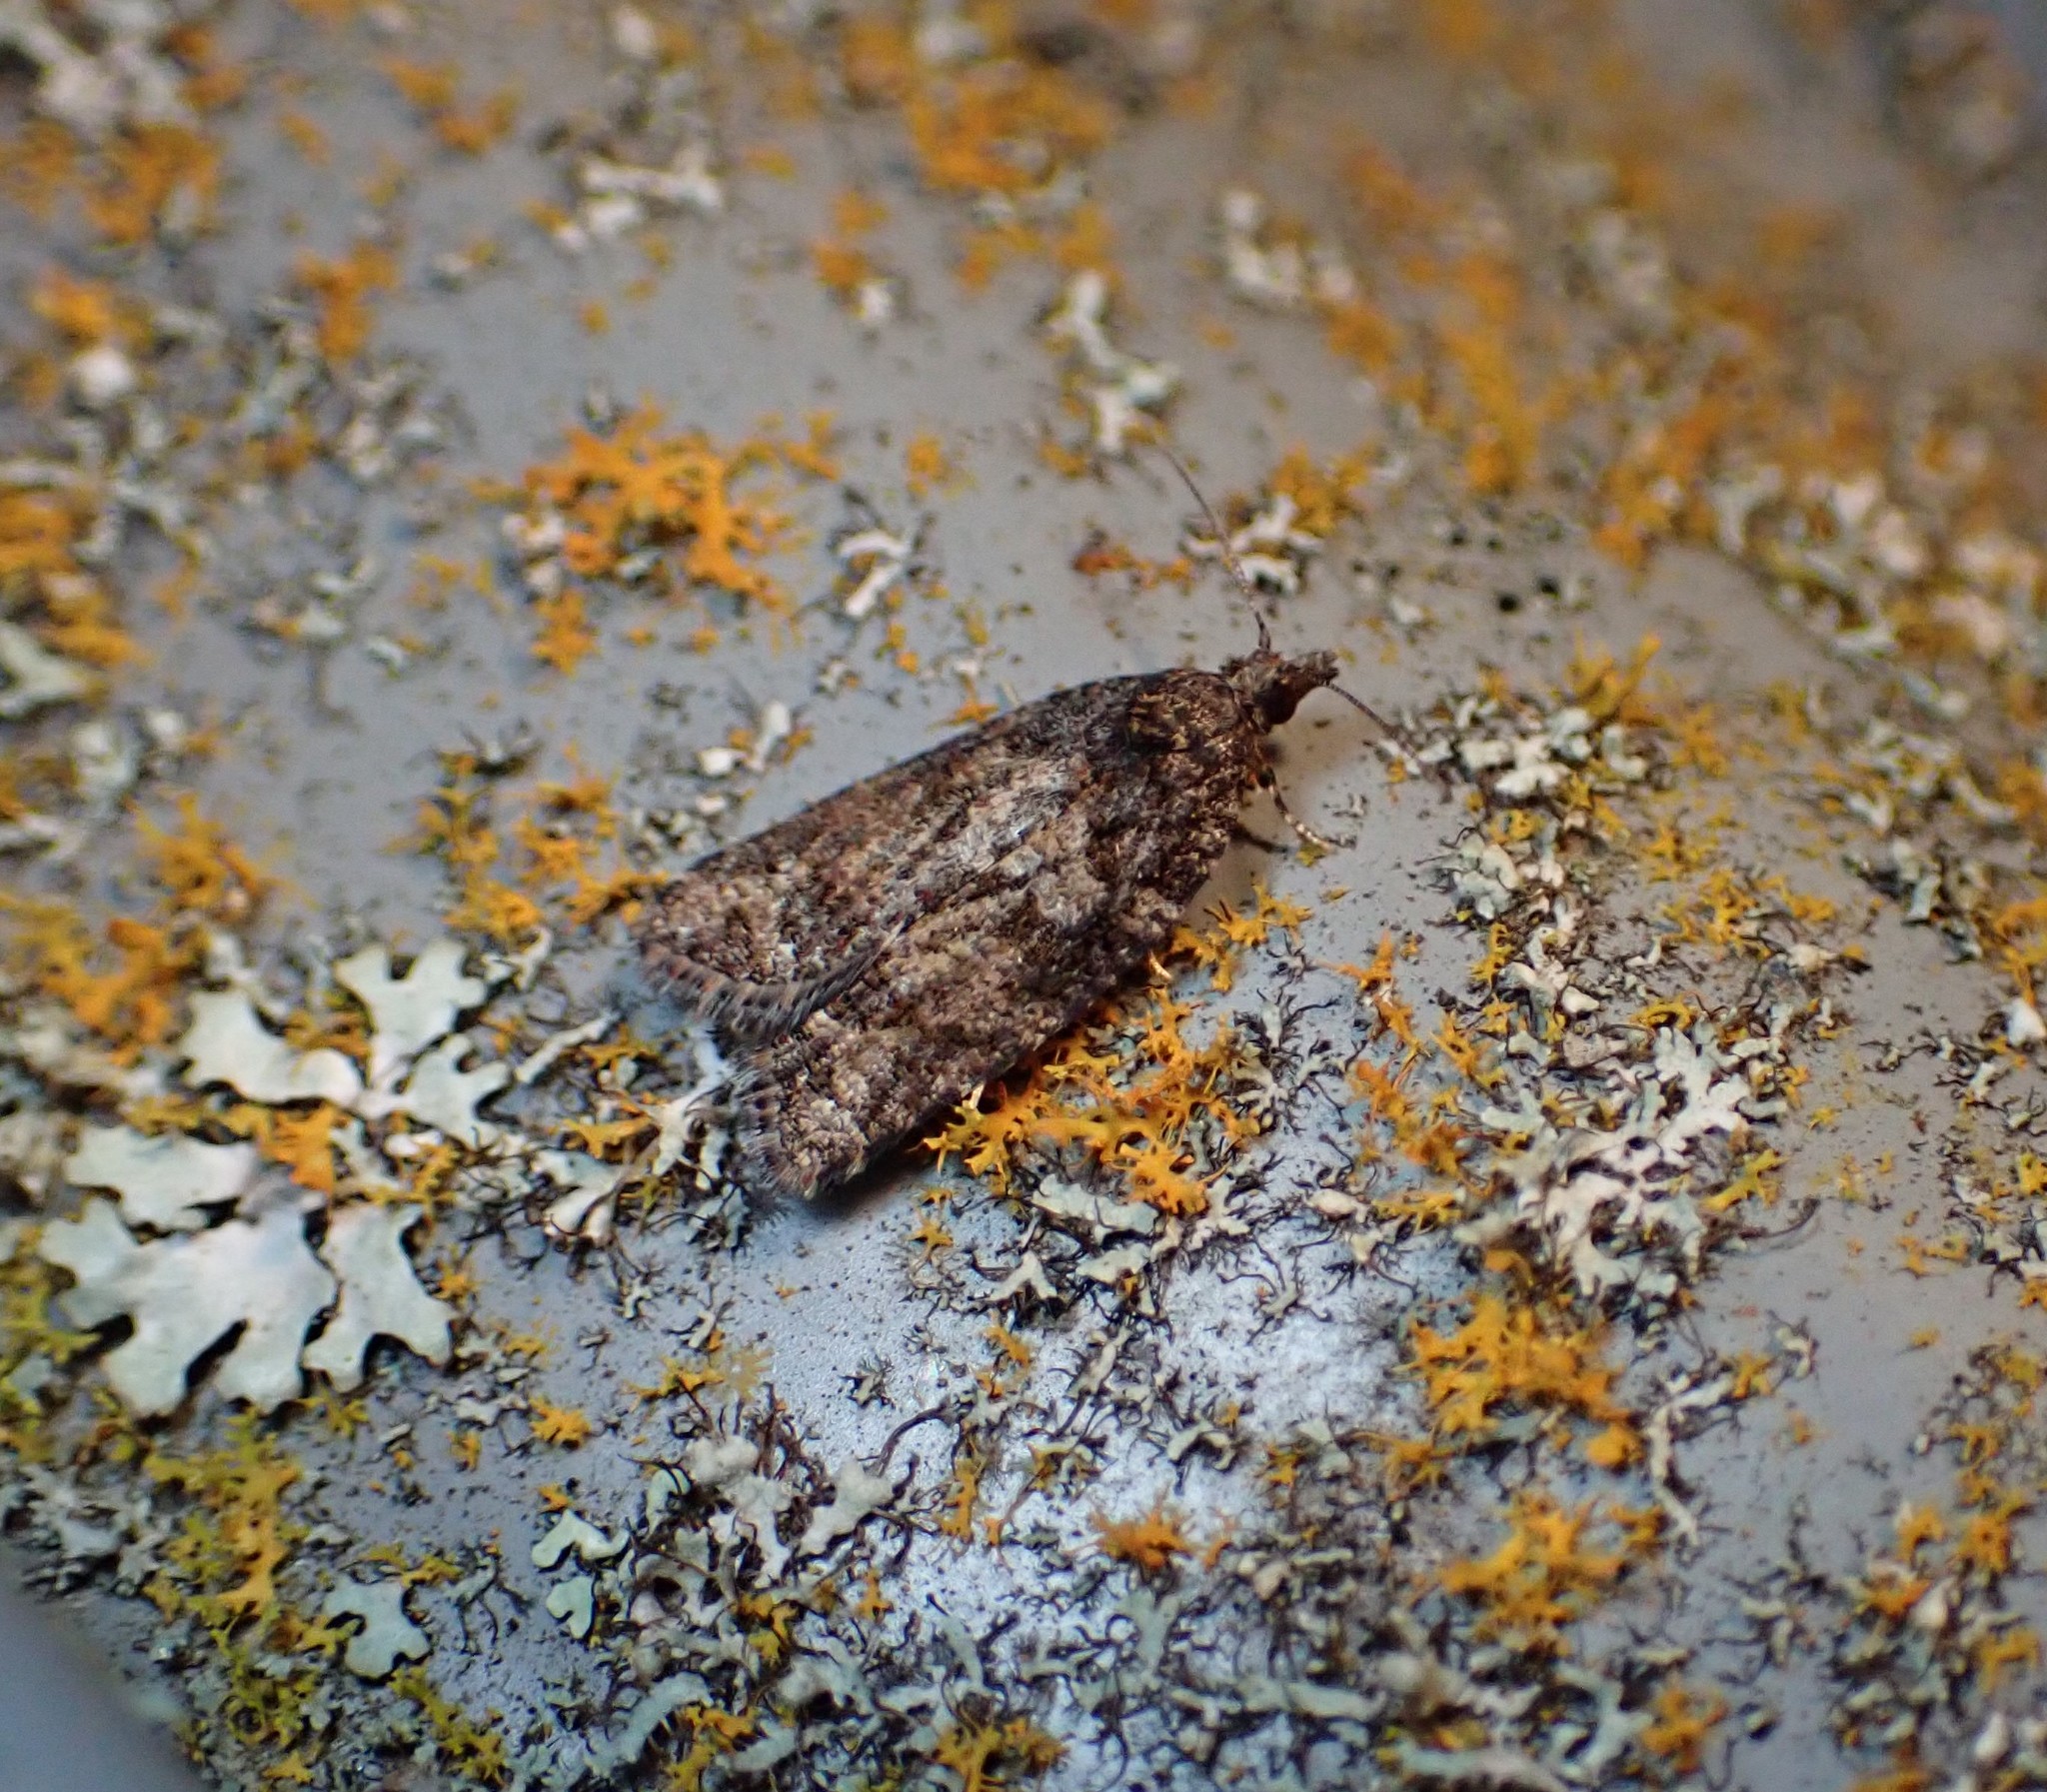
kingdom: Animalia
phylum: Arthropoda
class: Insecta
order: Lepidoptera
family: Tortricidae
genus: Capua
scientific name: Capua intractana
